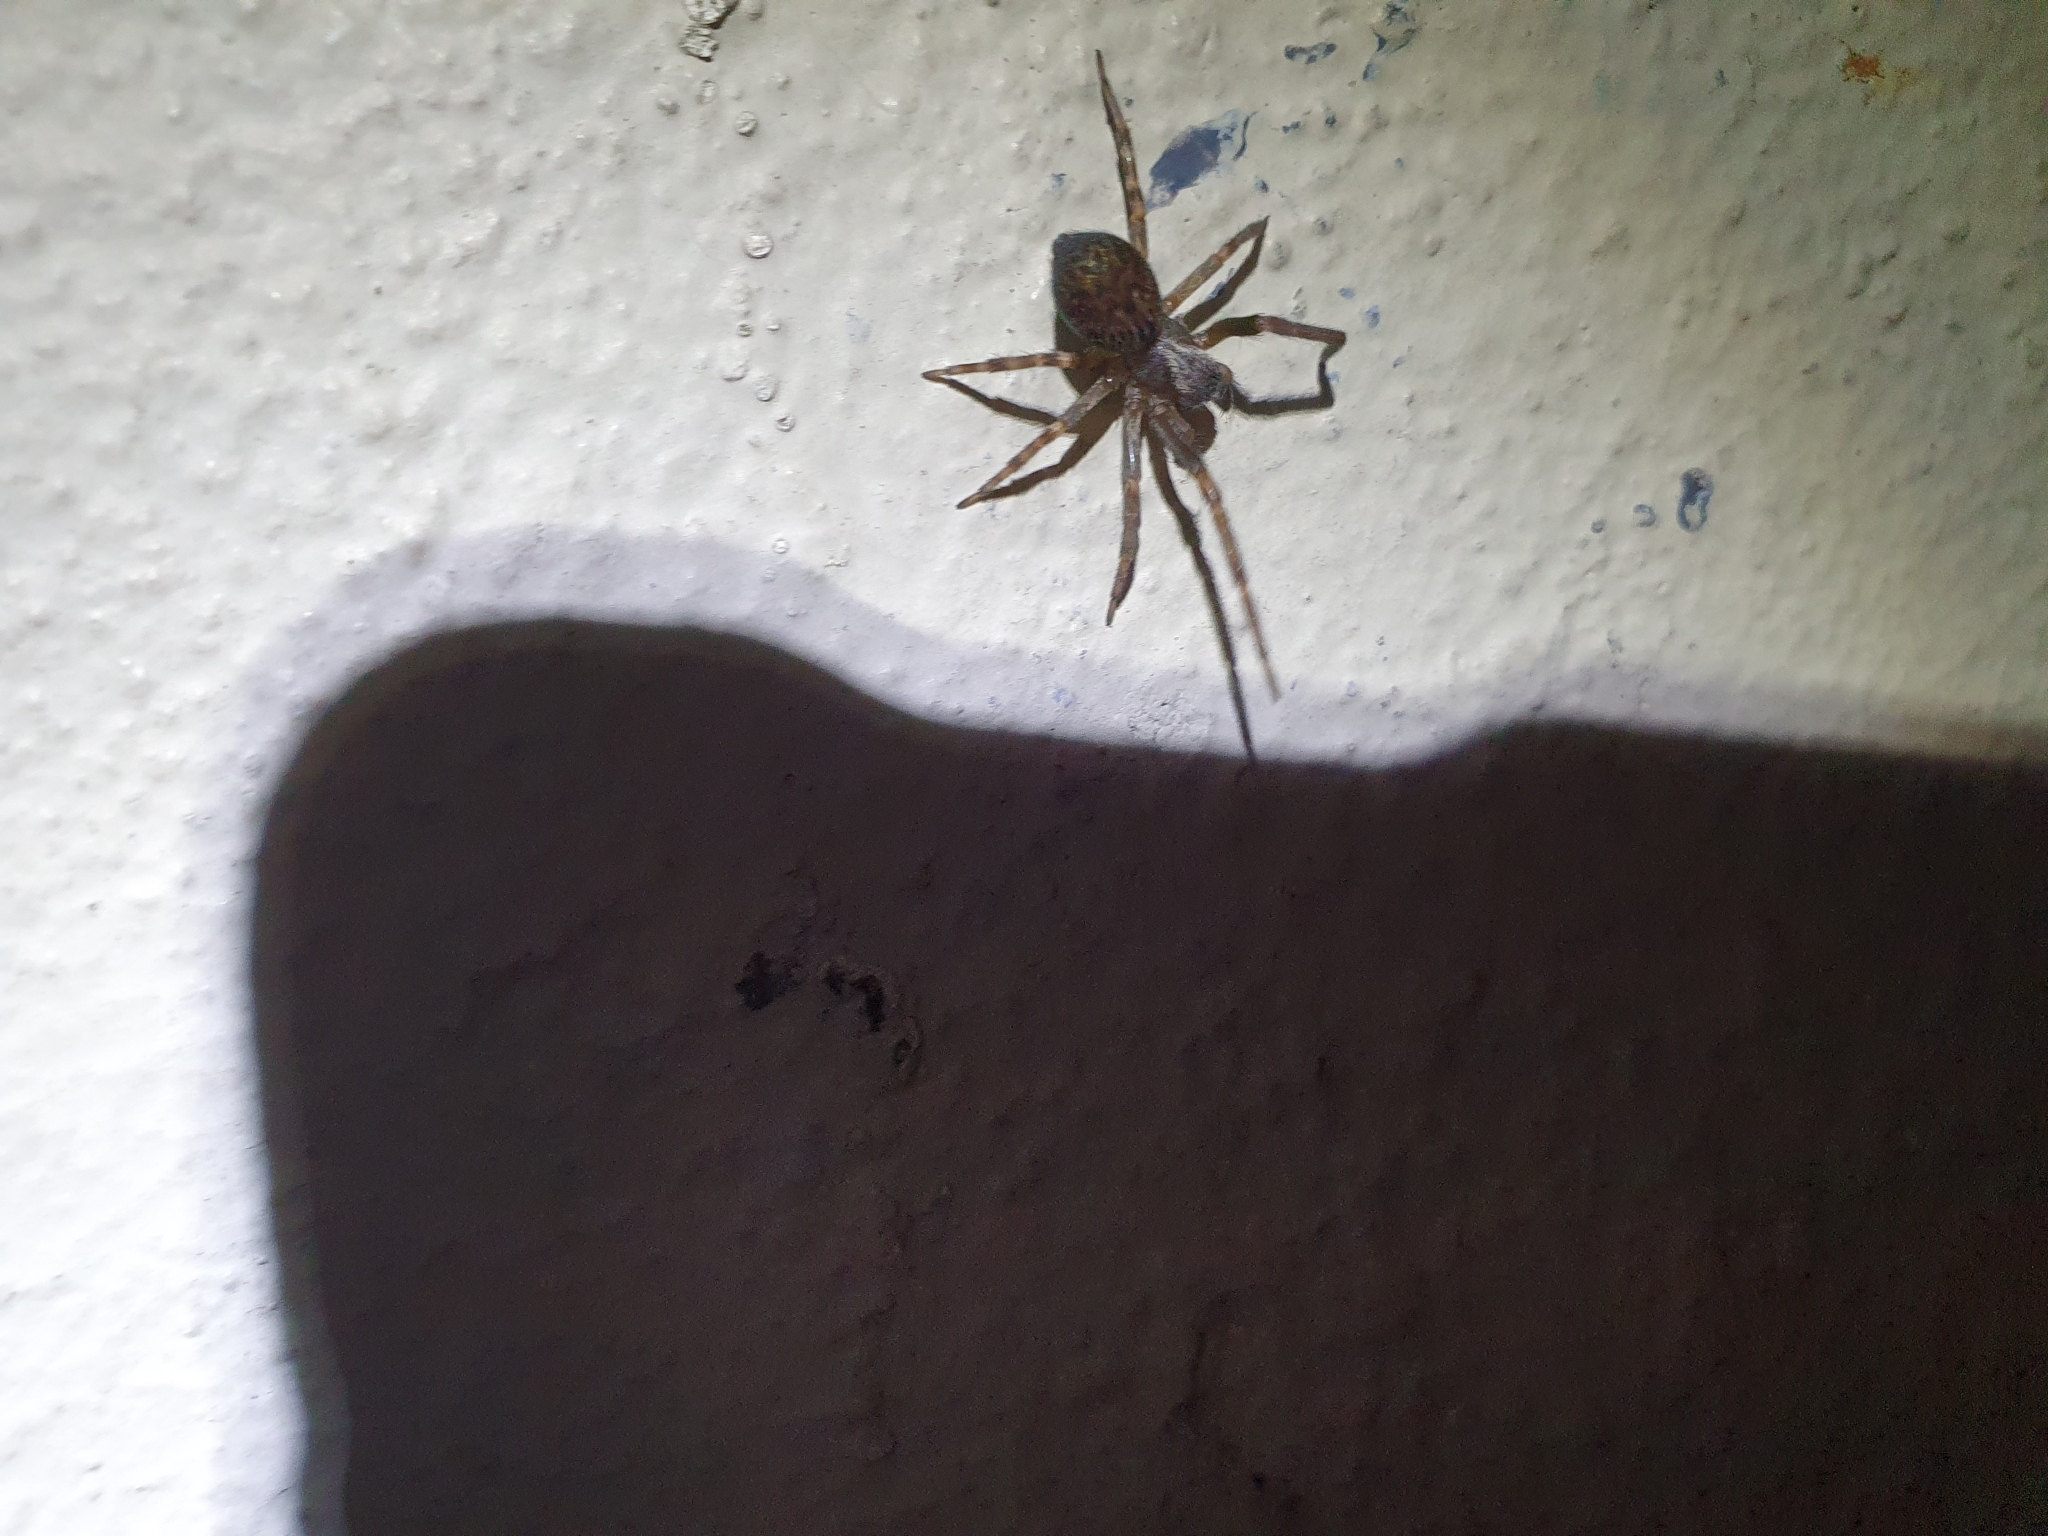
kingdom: Animalia
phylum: Arthropoda
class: Arachnida
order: Araneae
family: Desidae
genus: Badumna
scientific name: Badumna longinqua
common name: Gray house spider
